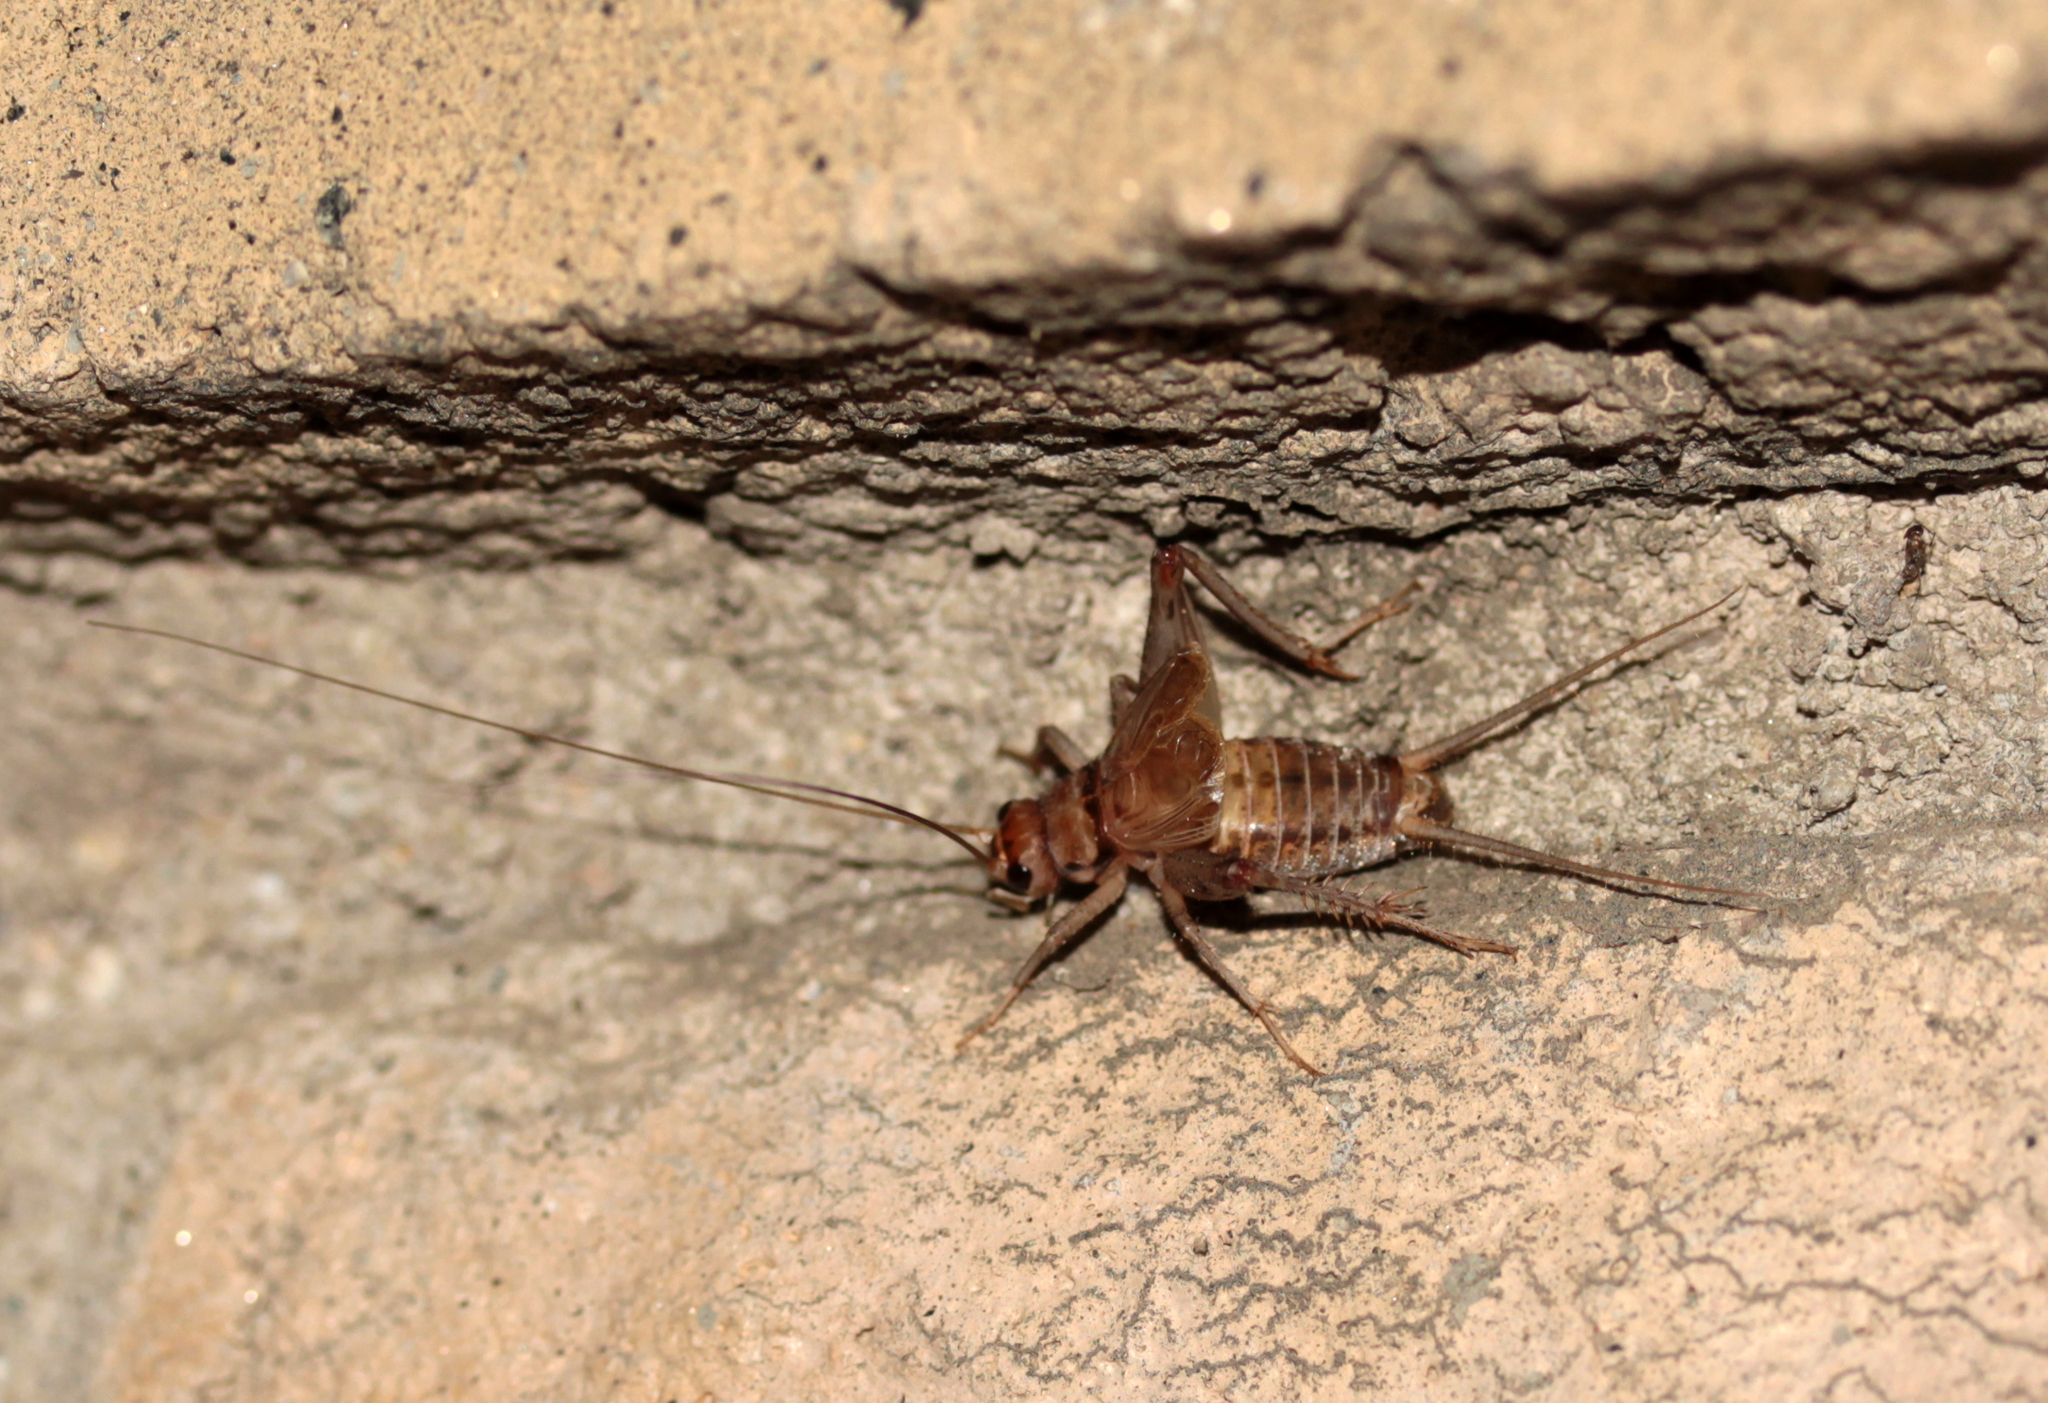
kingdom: Animalia
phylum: Arthropoda
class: Insecta
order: Orthoptera
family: Gryllidae
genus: Gryllodes
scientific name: Gryllodes sigillatus
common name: Tropical house cricket
